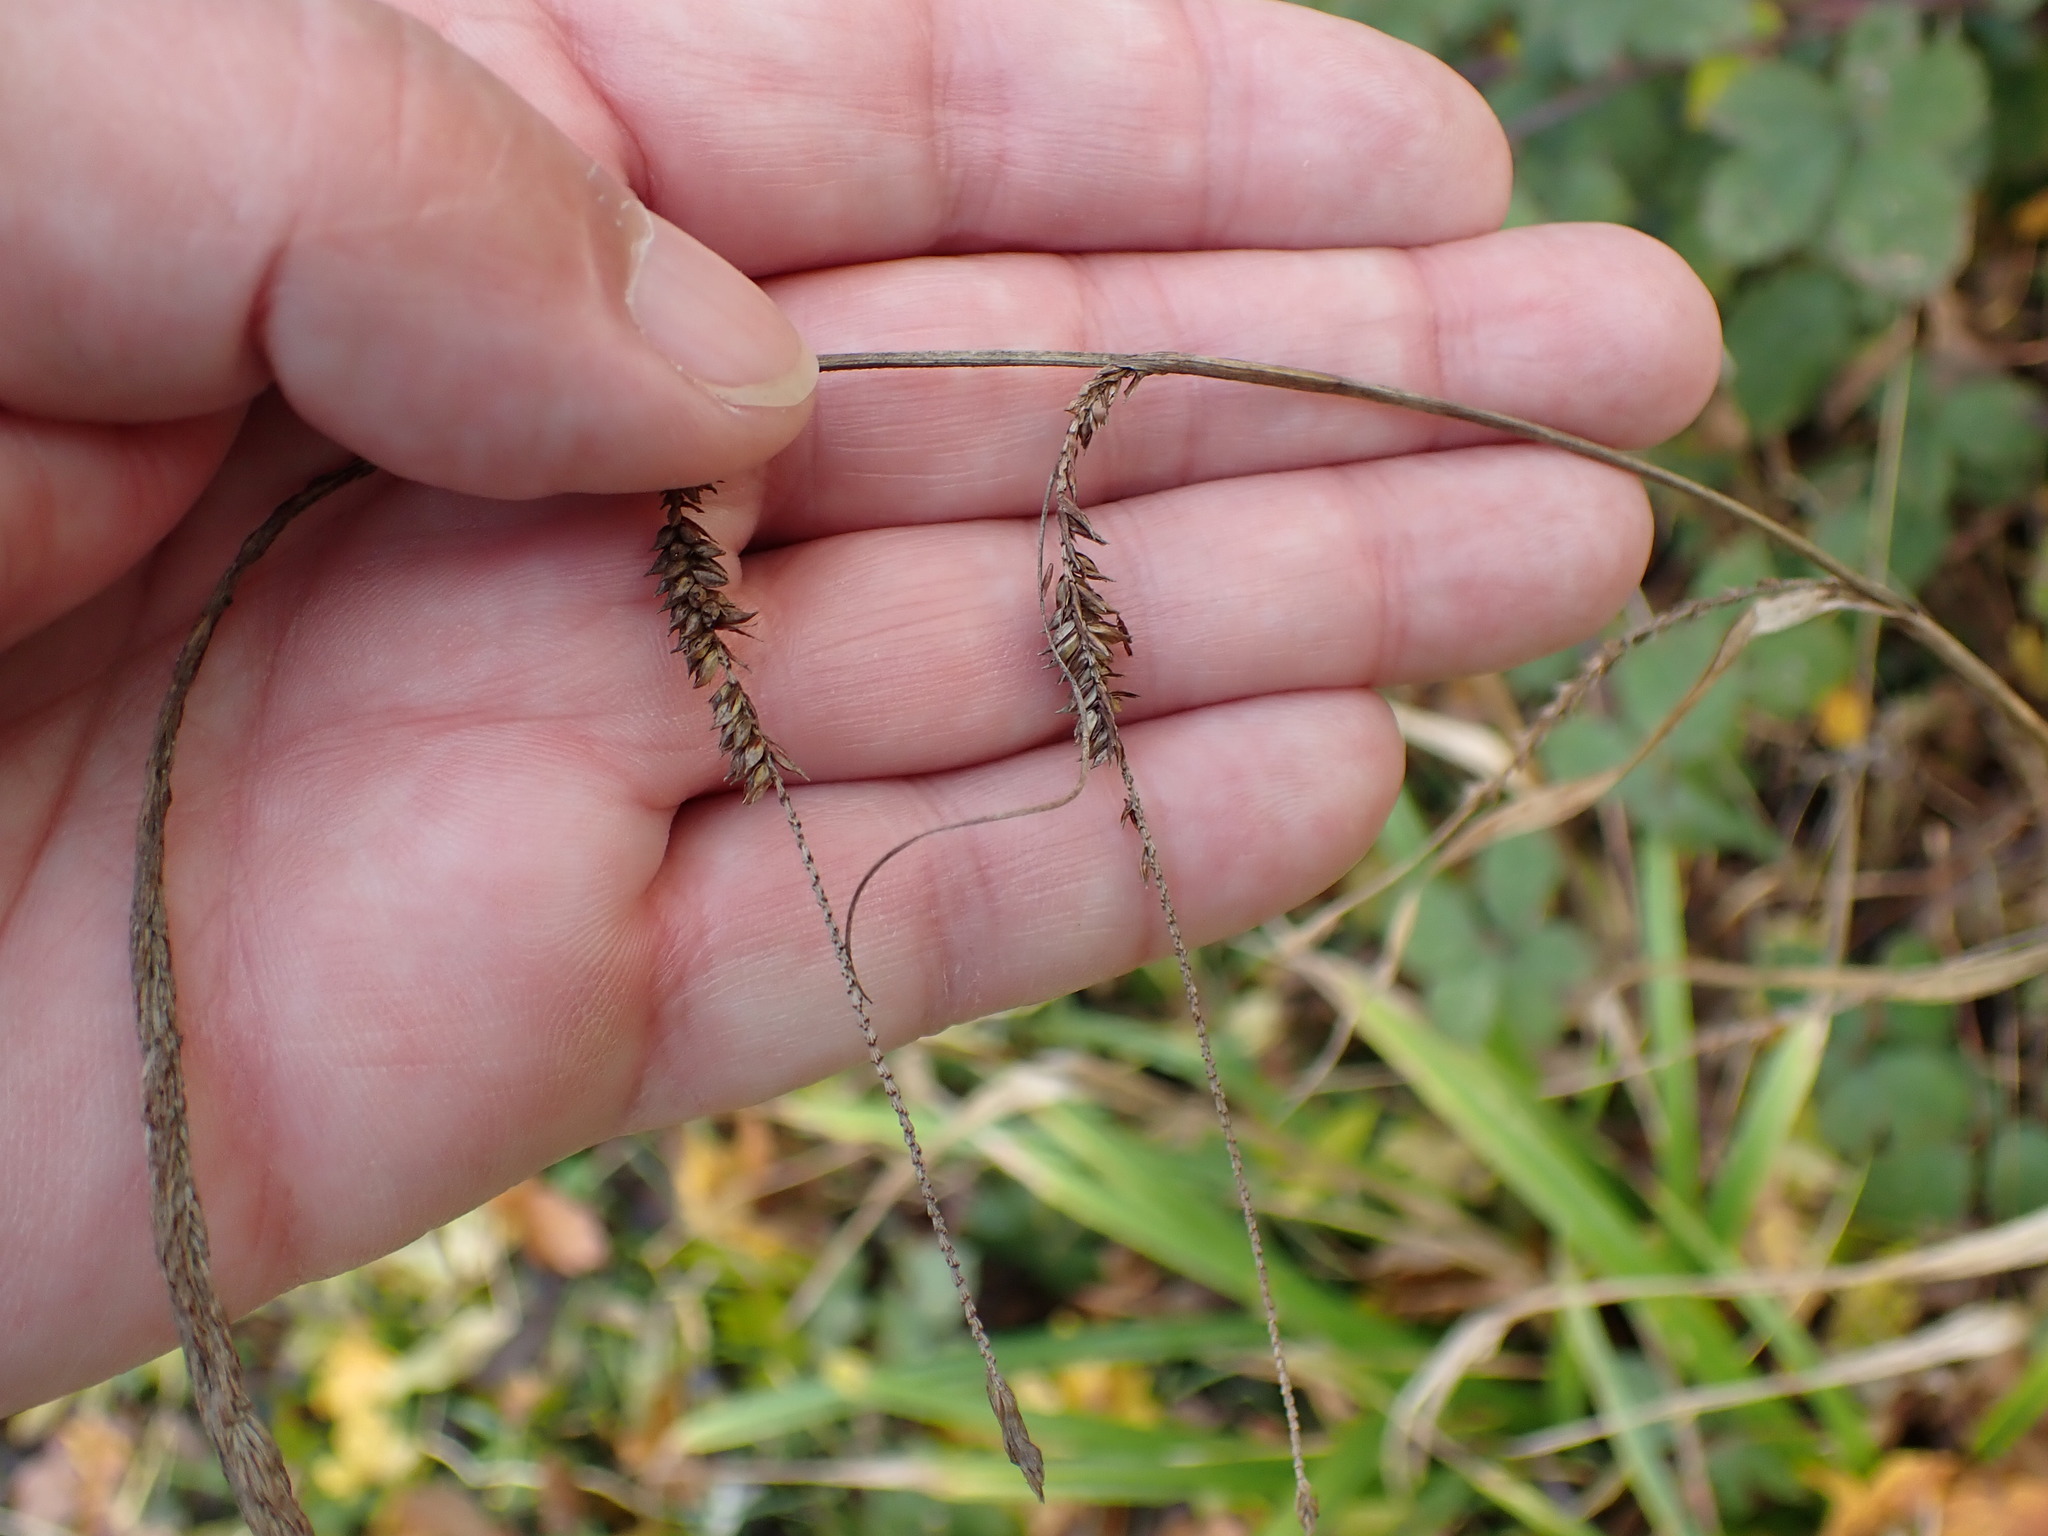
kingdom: Plantae
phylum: Tracheophyta
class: Liliopsida
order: Poales
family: Cyperaceae
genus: Carex
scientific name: Carex pendula
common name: Pendulous sedge
